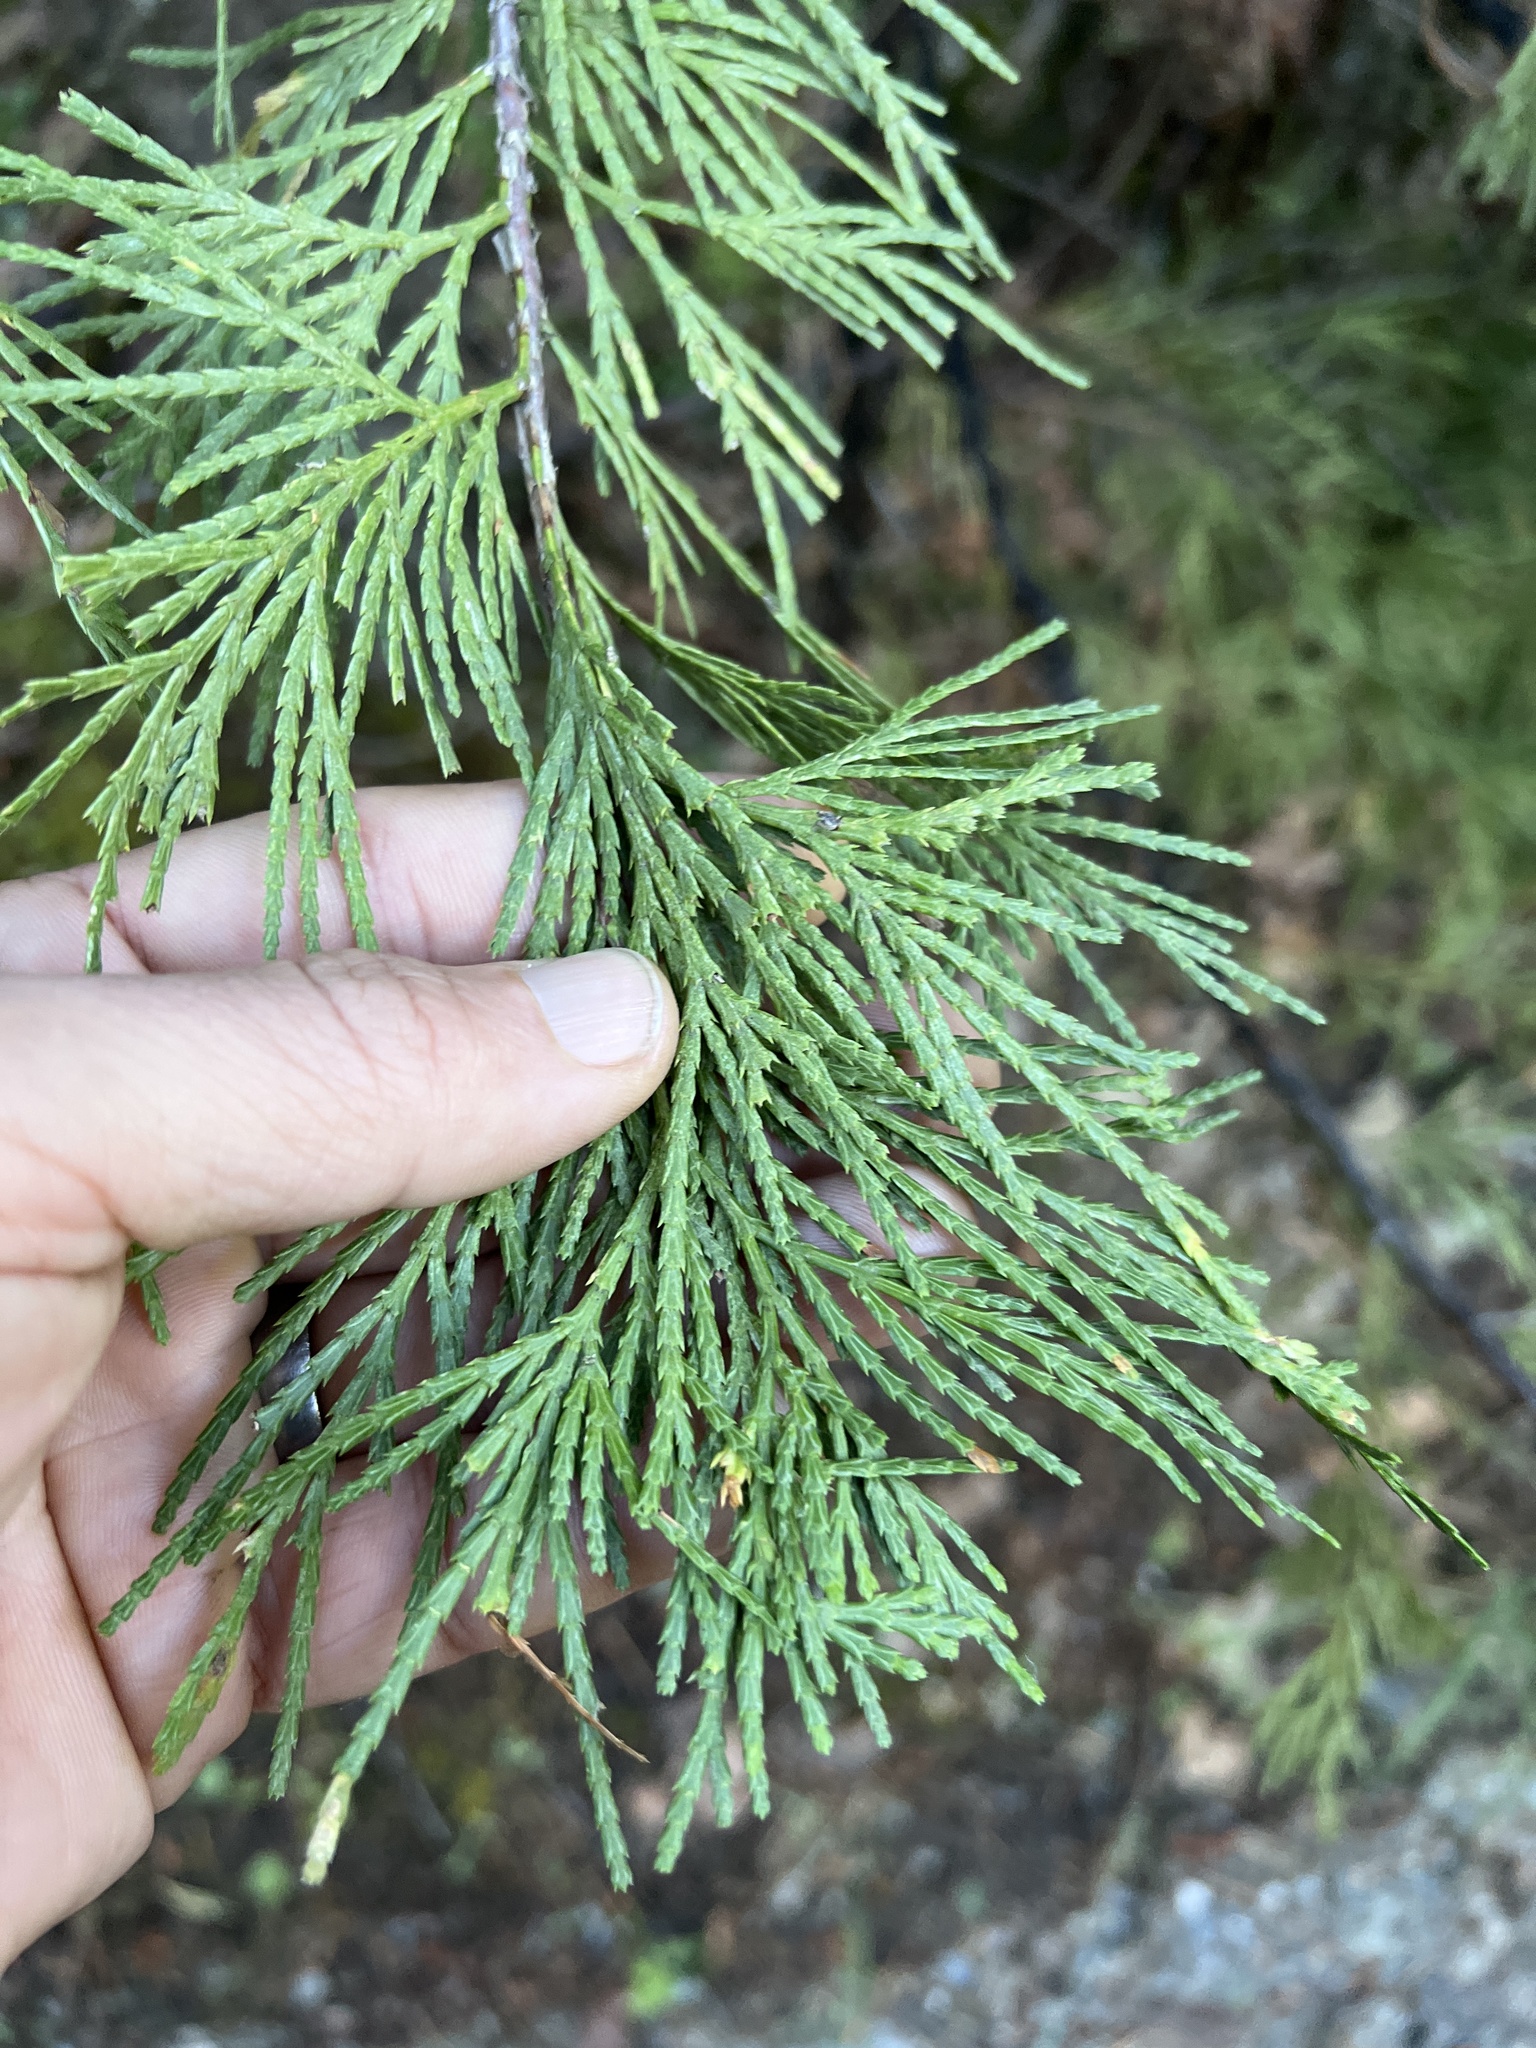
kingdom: Plantae
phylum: Tracheophyta
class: Pinopsida
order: Pinales
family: Cupressaceae
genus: Calocedrus
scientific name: Calocedrus decurrens
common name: Californian incense-cedar
